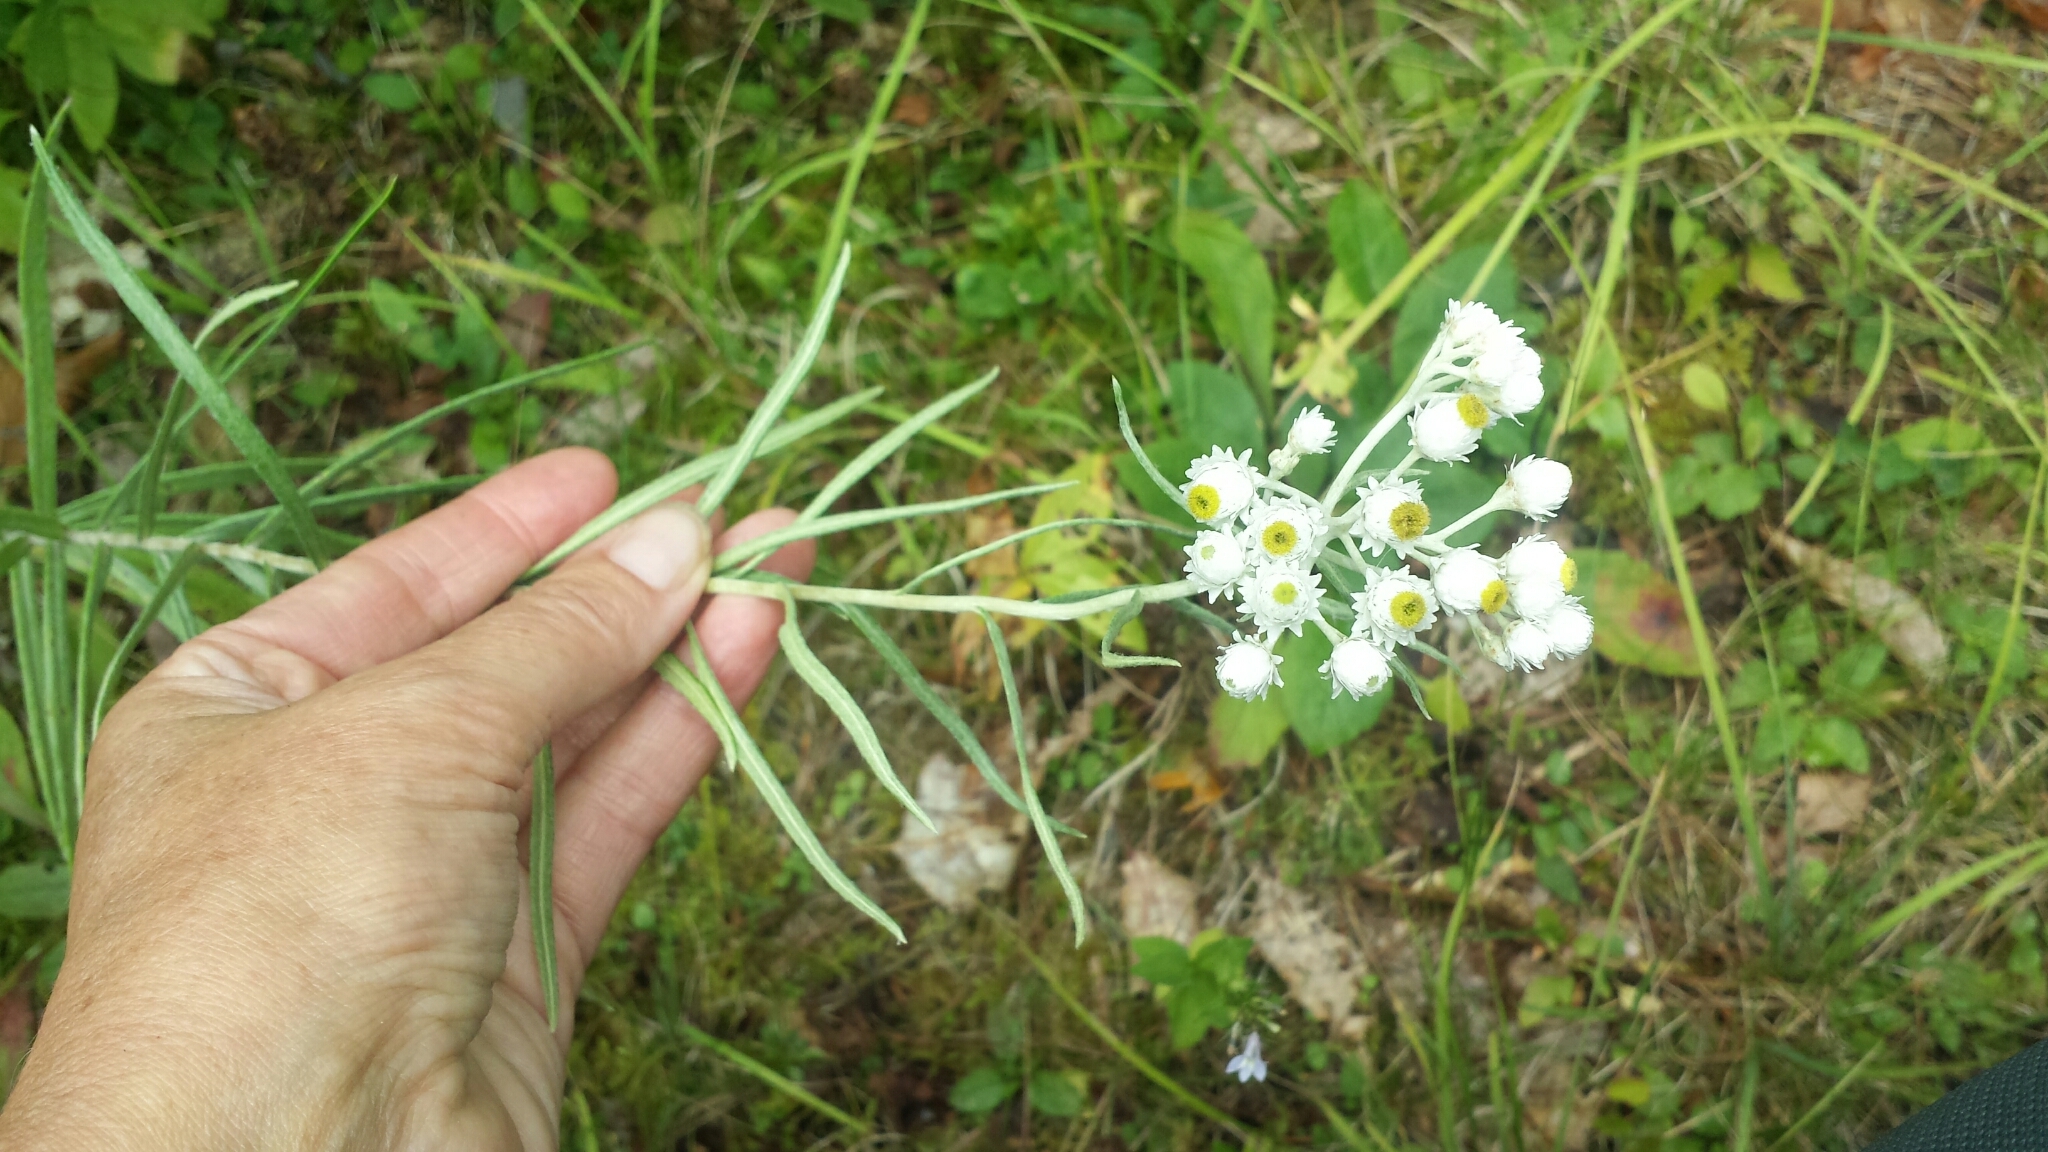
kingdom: Plantae
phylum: Tracheophyta
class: Magnoliopsida
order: Asterales
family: Asteraceae
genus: Anaphalis
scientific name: Anaphalis margaritacea
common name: Pearly everlasting
